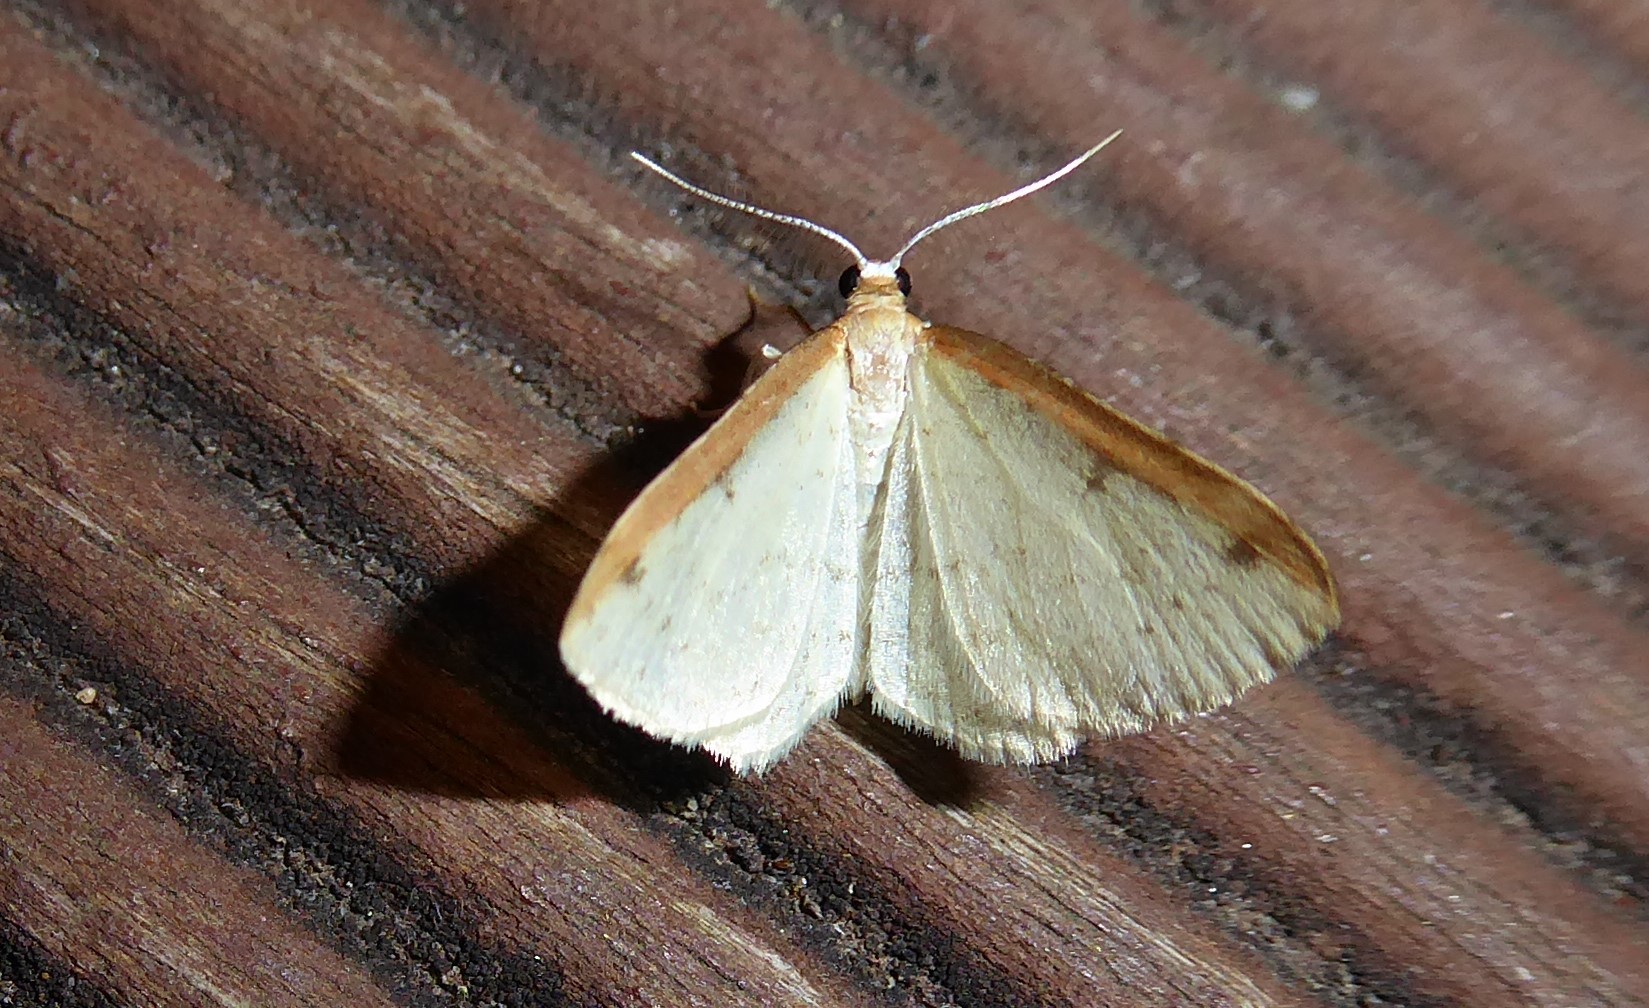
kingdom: Animalia
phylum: Arthropoda
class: Insecta
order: Lepidoptera
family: Geometridae
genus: Epiphryne
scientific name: Epiphryne undosata
